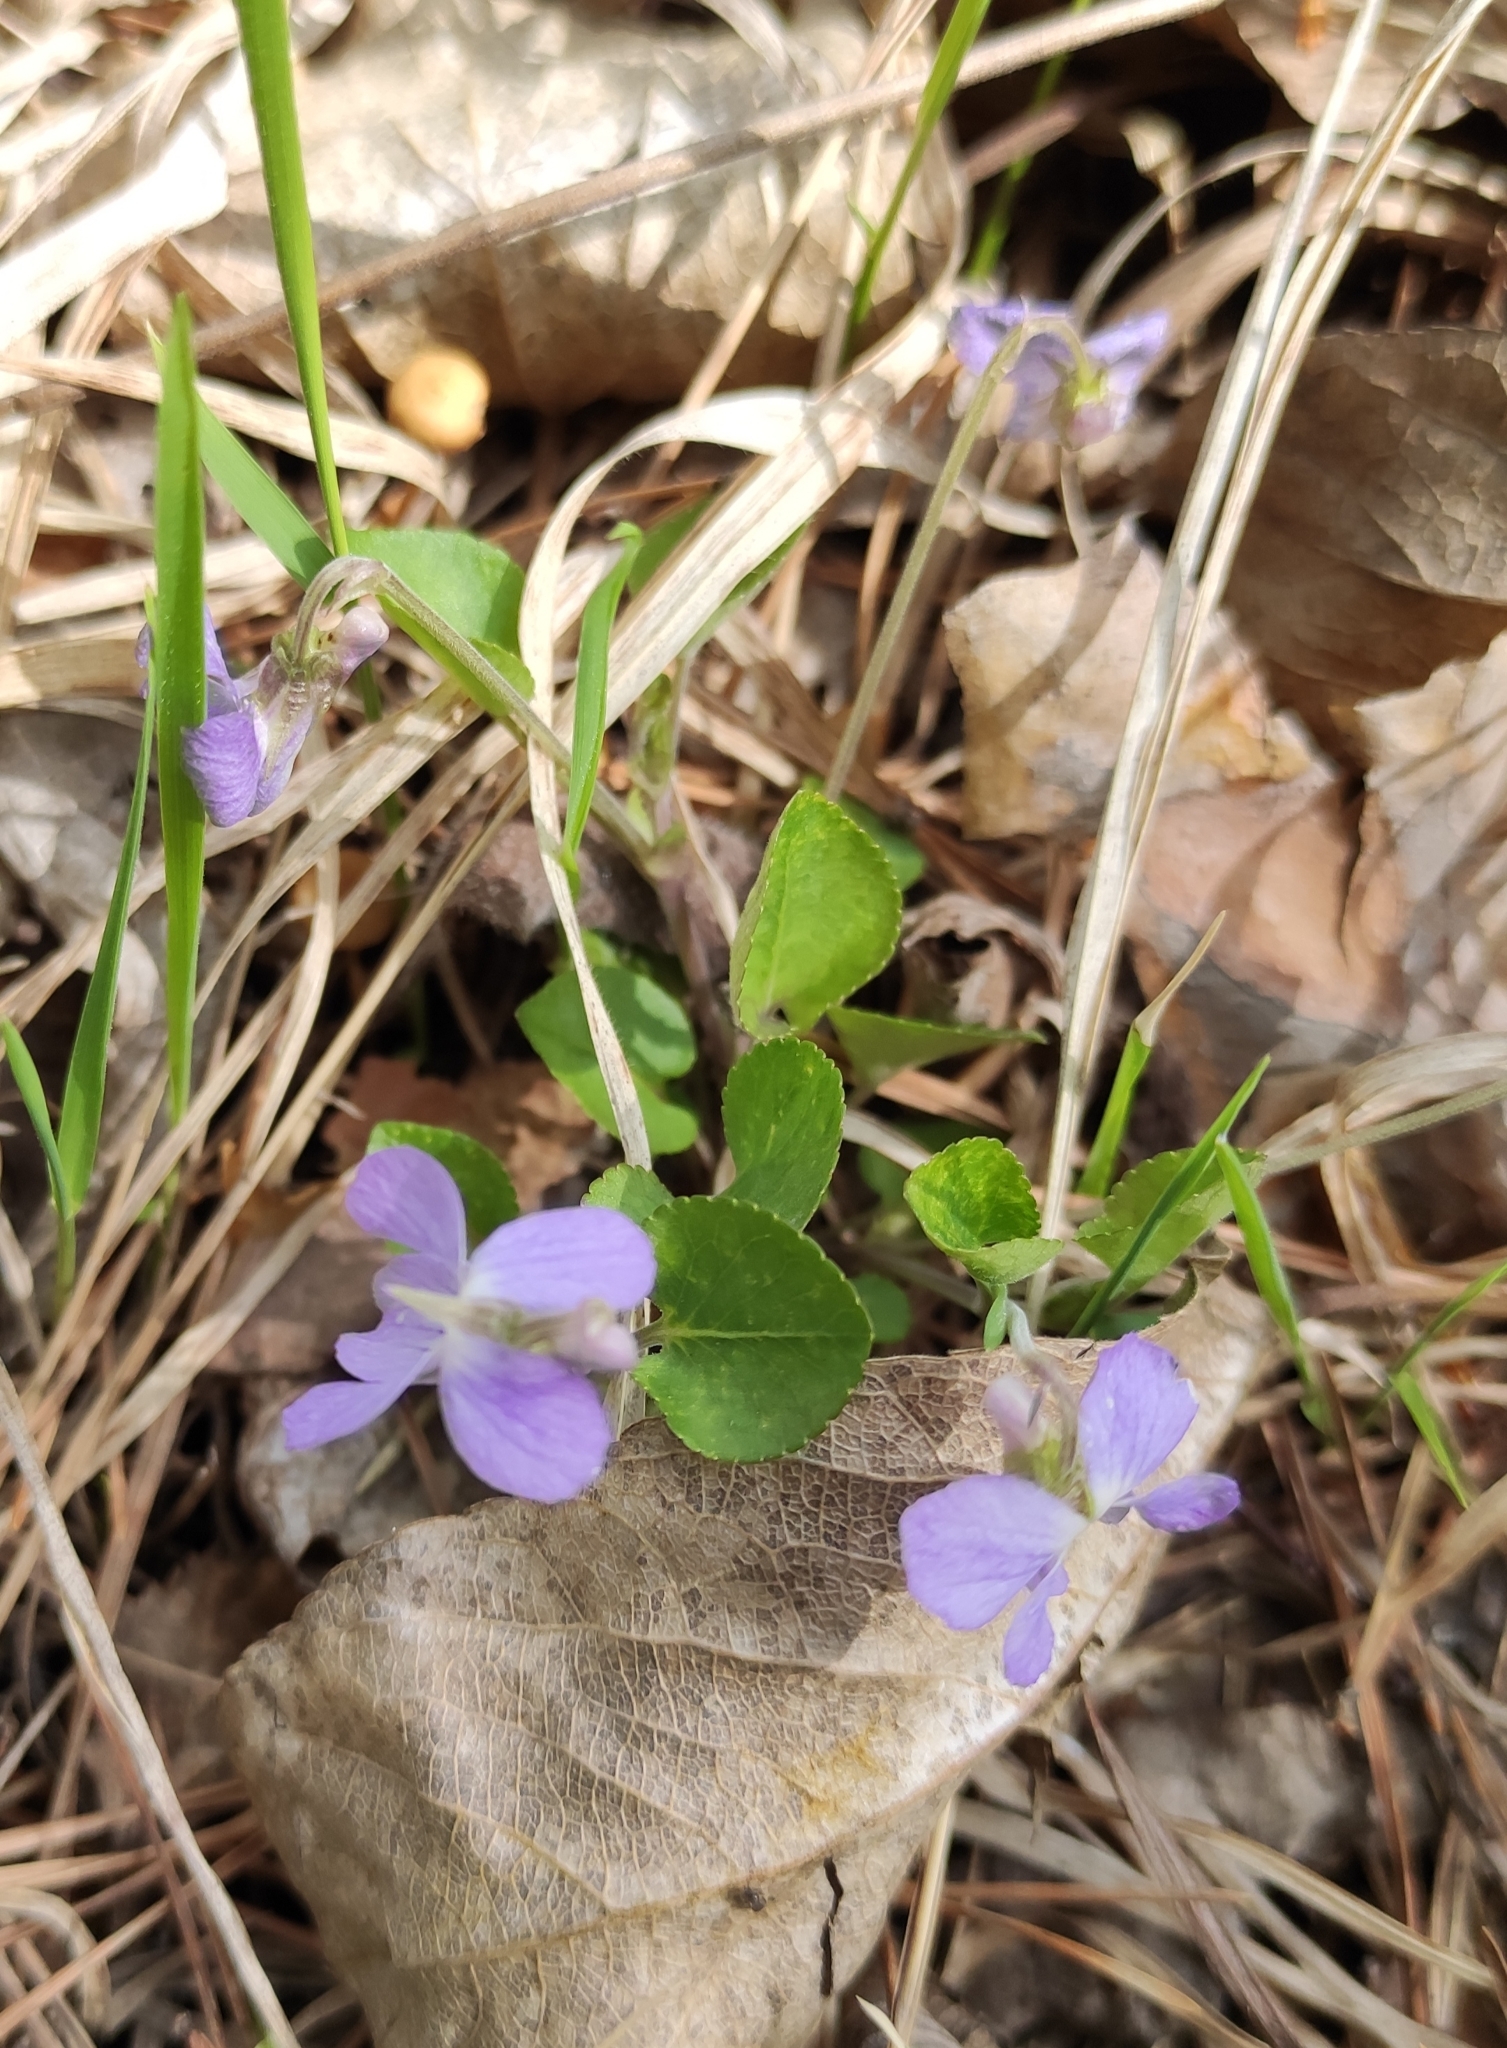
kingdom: Plantae
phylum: Tracheophyta
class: Magnoliopsida
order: Malpighiales
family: Violaceae
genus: Viola
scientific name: Viola rupestris
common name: Teesdale violet
